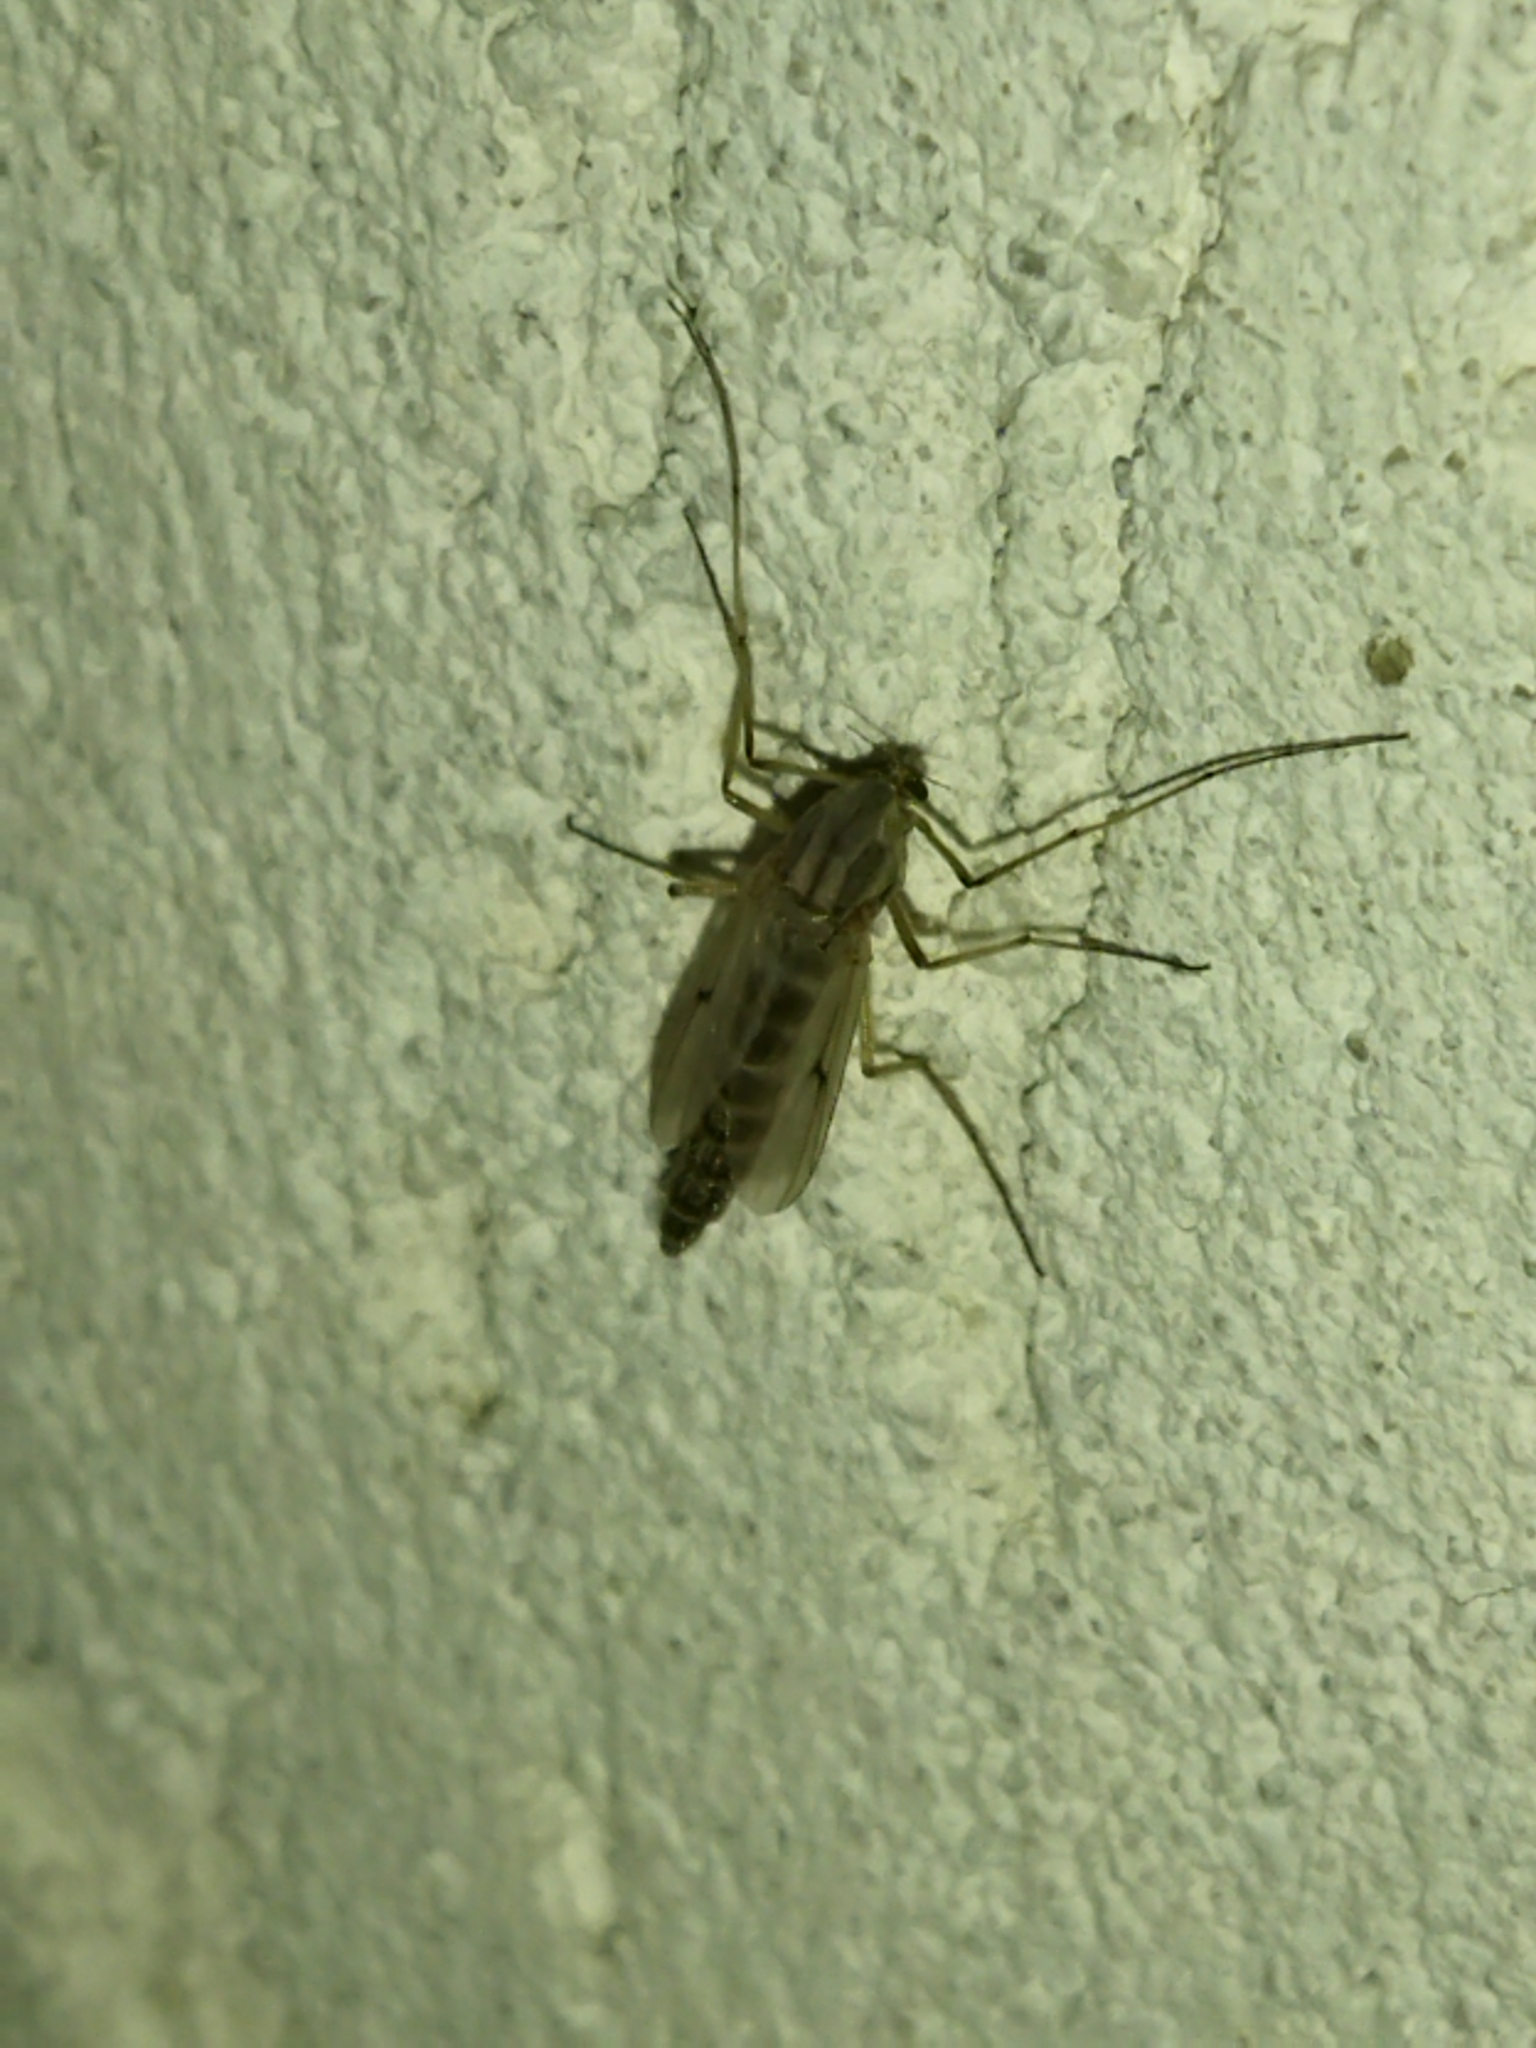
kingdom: Animalia
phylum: Arthropoda
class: Insecta
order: Diptera
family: Chironomidae
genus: Glyptotendipes
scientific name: Glyptotendipes barbipes
